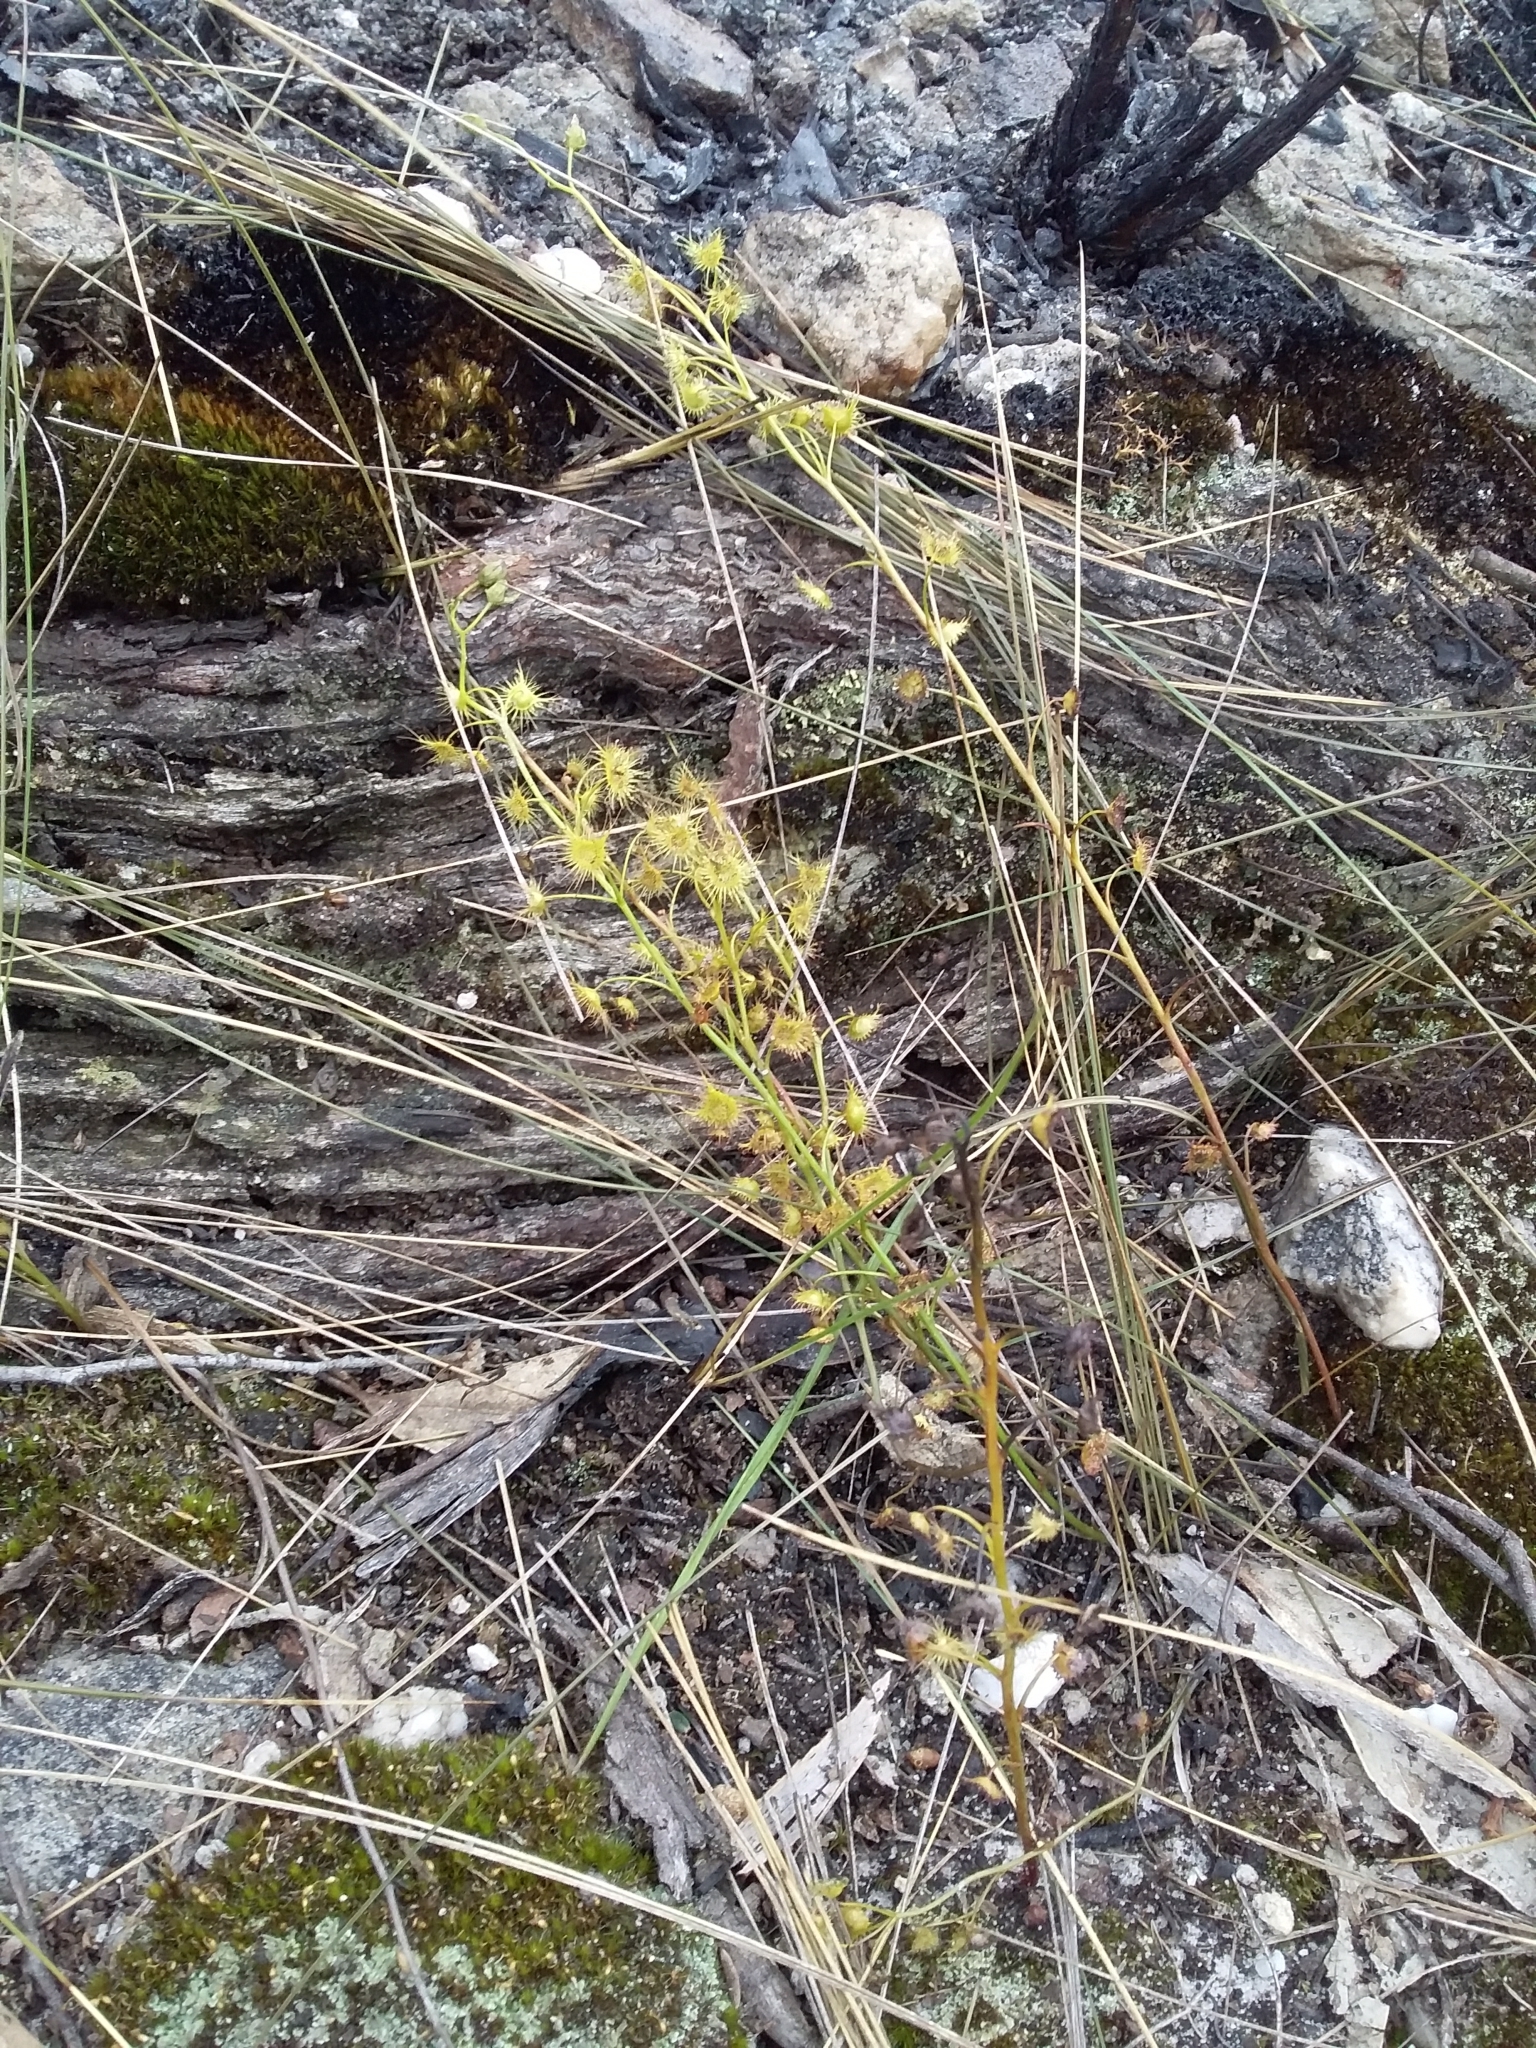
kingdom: Plantae
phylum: Tracheophyta
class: Magnoliopsida
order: Caryophyllales
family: Droseraceae
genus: Drosera
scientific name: Drosera peltata
